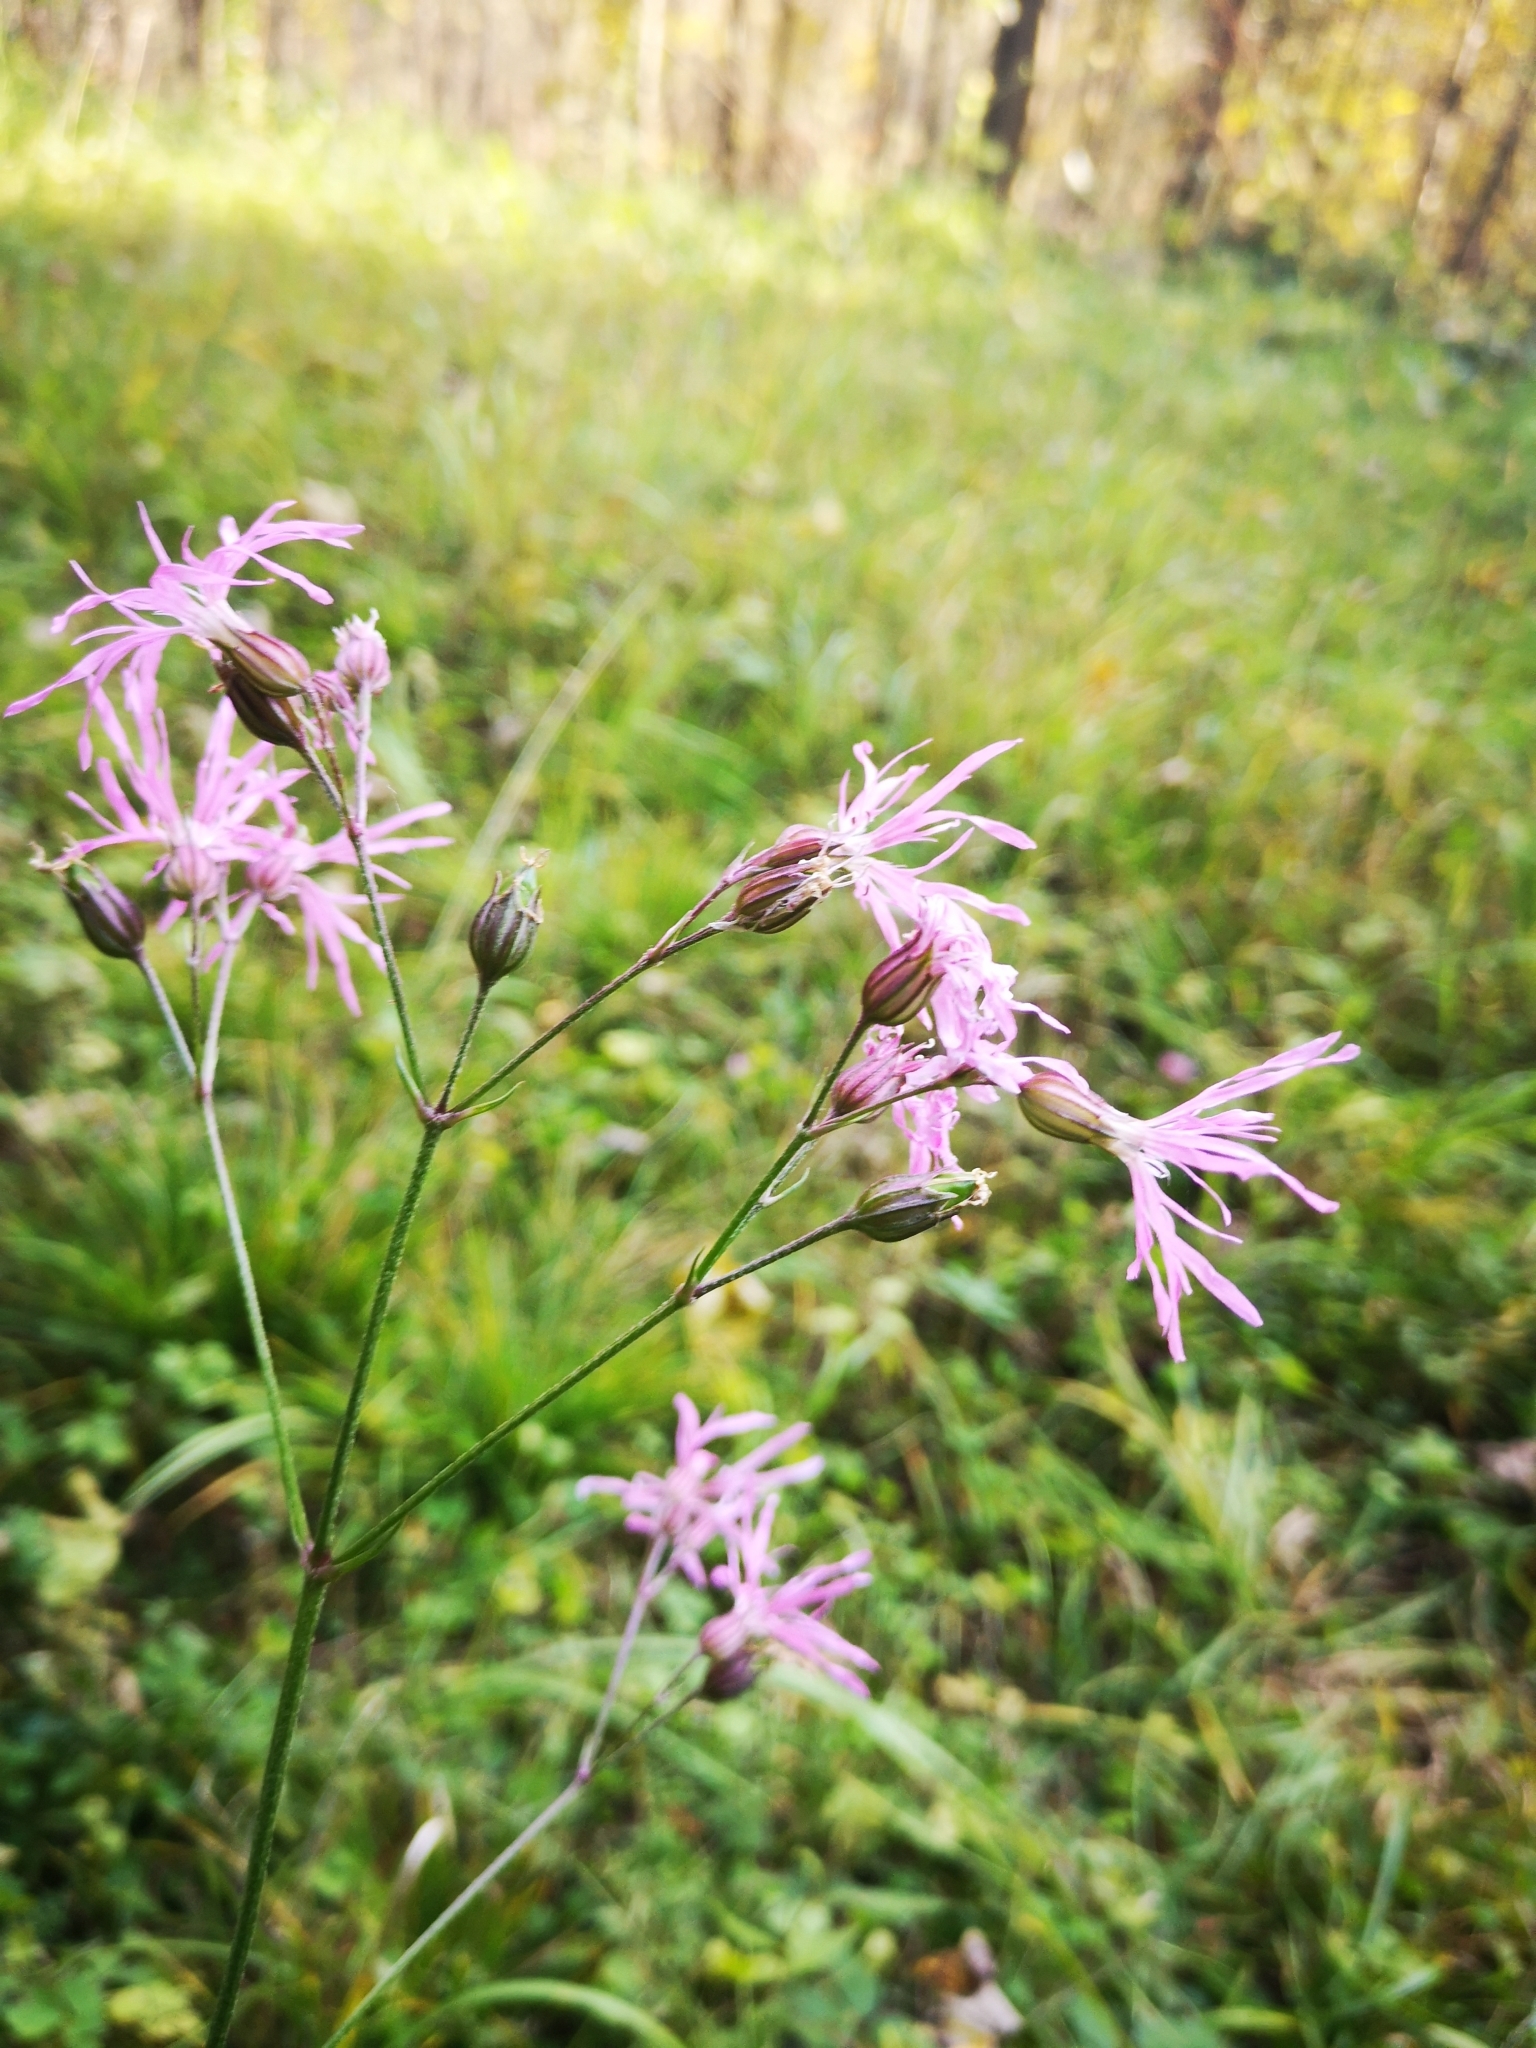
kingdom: Plantae
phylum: Tracheophyta
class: Magnoliopsida
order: Caryophyllales
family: Caryophyllaceae
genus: Silene
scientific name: Silene flos-cuculi
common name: Ragged-robin
